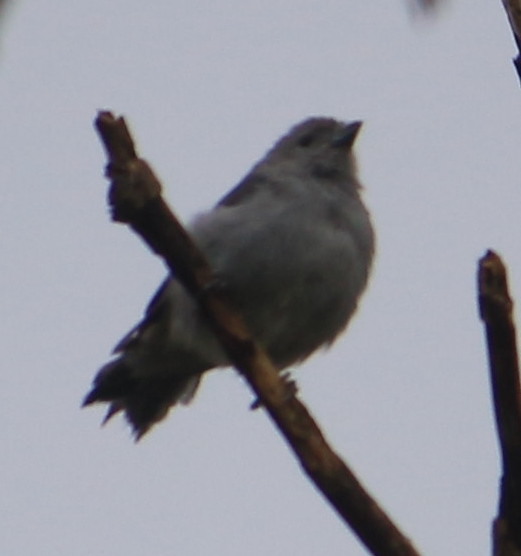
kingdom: Animalia
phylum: Chordata
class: Aves
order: Passeriformes
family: Thraupidae
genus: Thraupis
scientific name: Thraupis sayaca
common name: Sayaca tanager
